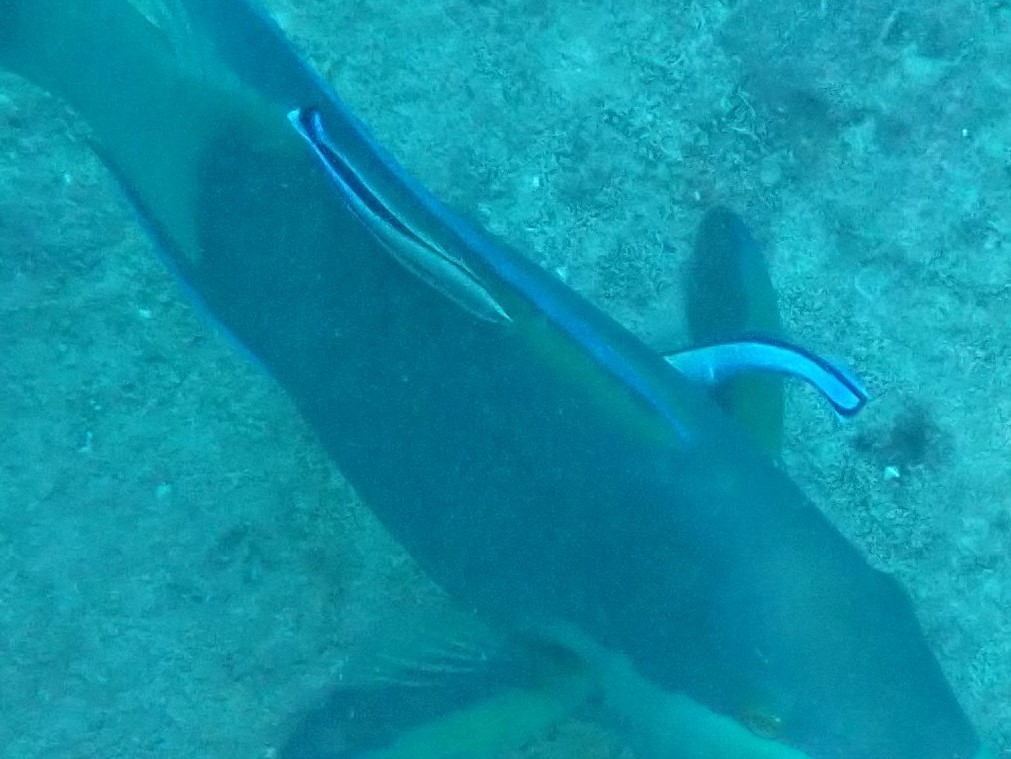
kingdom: Animalia
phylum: Chordata
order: Perciformes
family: Labridae
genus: Labroides
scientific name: Labroides dimidiatus
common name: Blue diesel wrasse
